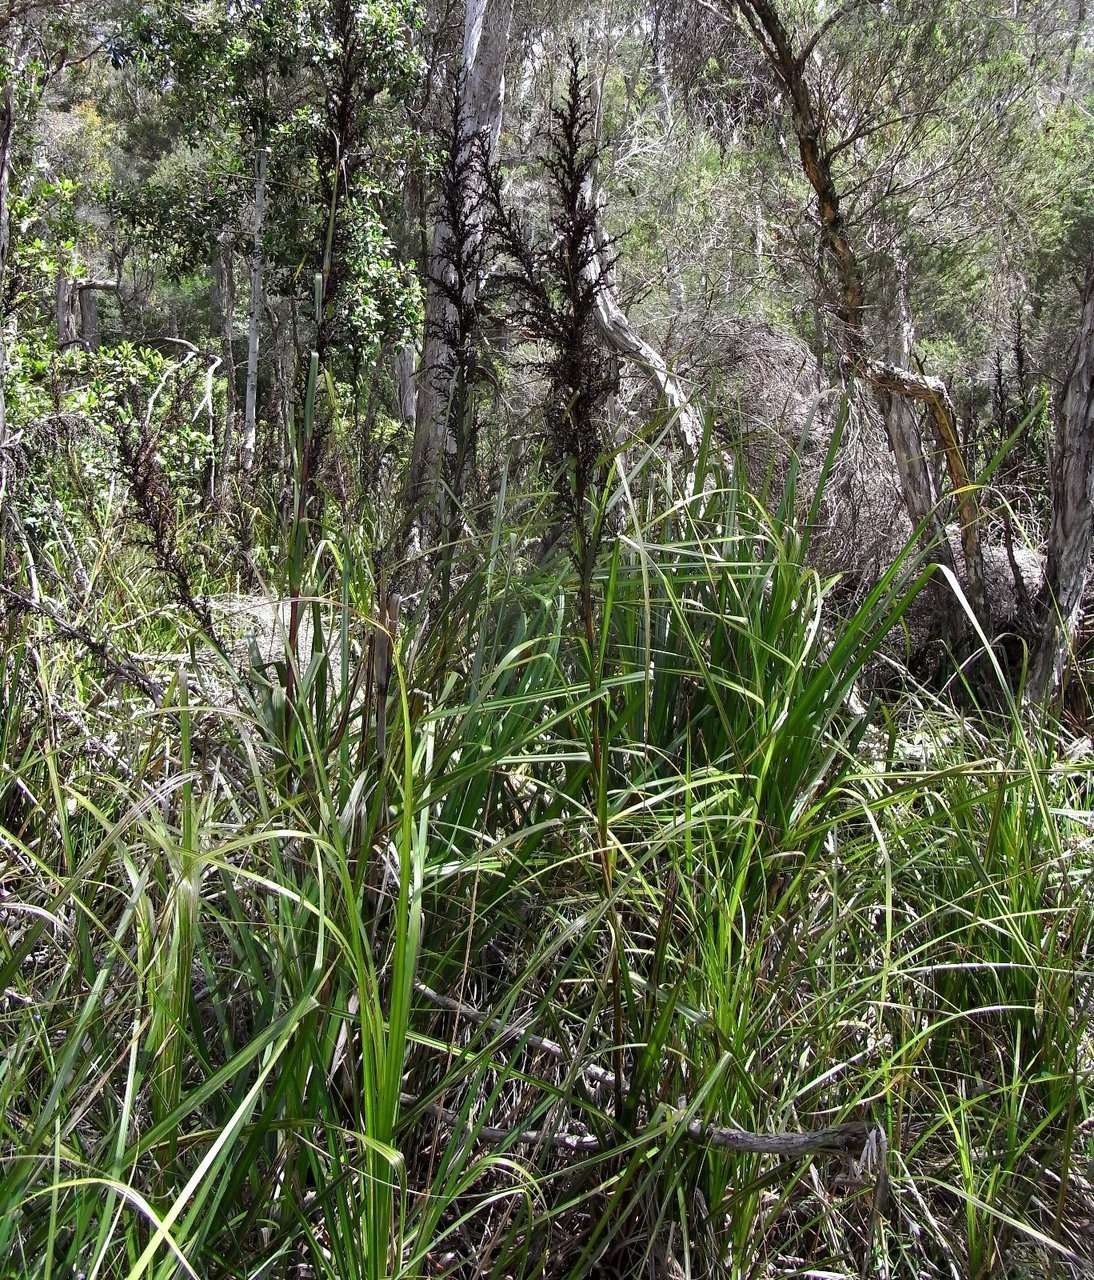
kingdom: Plantae
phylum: Tracheophyta
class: Liliopsida
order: Poales
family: Cyperaceae
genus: Gahnia
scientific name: Gahnia clarkei
